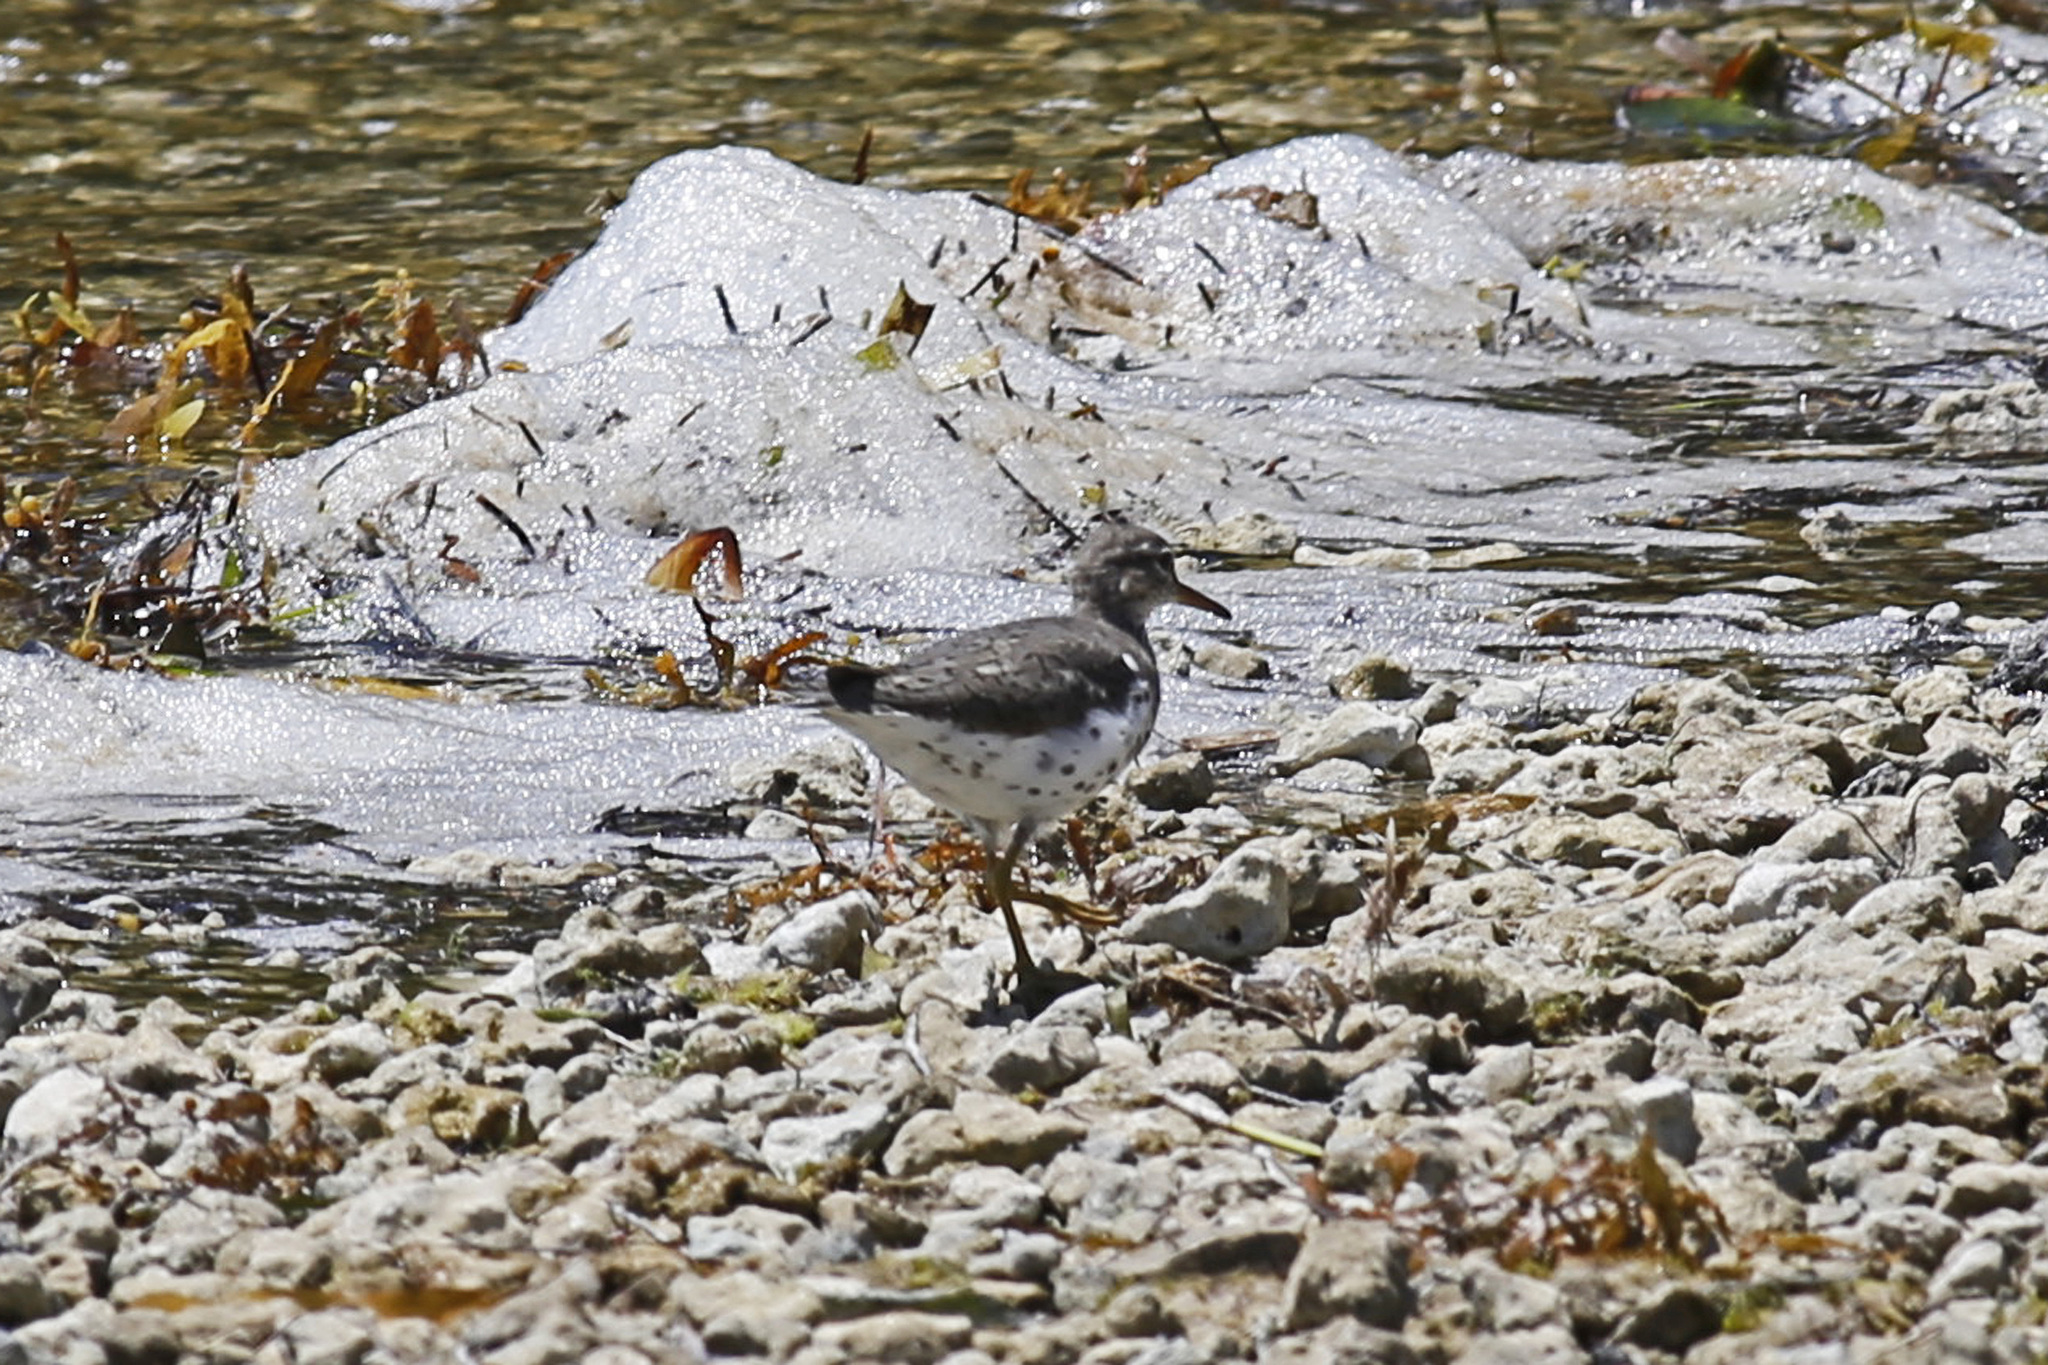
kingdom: Animalia
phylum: Chordata
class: Aves
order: Charadriiformes
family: Scolopacidae
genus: Actitis
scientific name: Actitis macularius
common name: Spotted sandpiper
